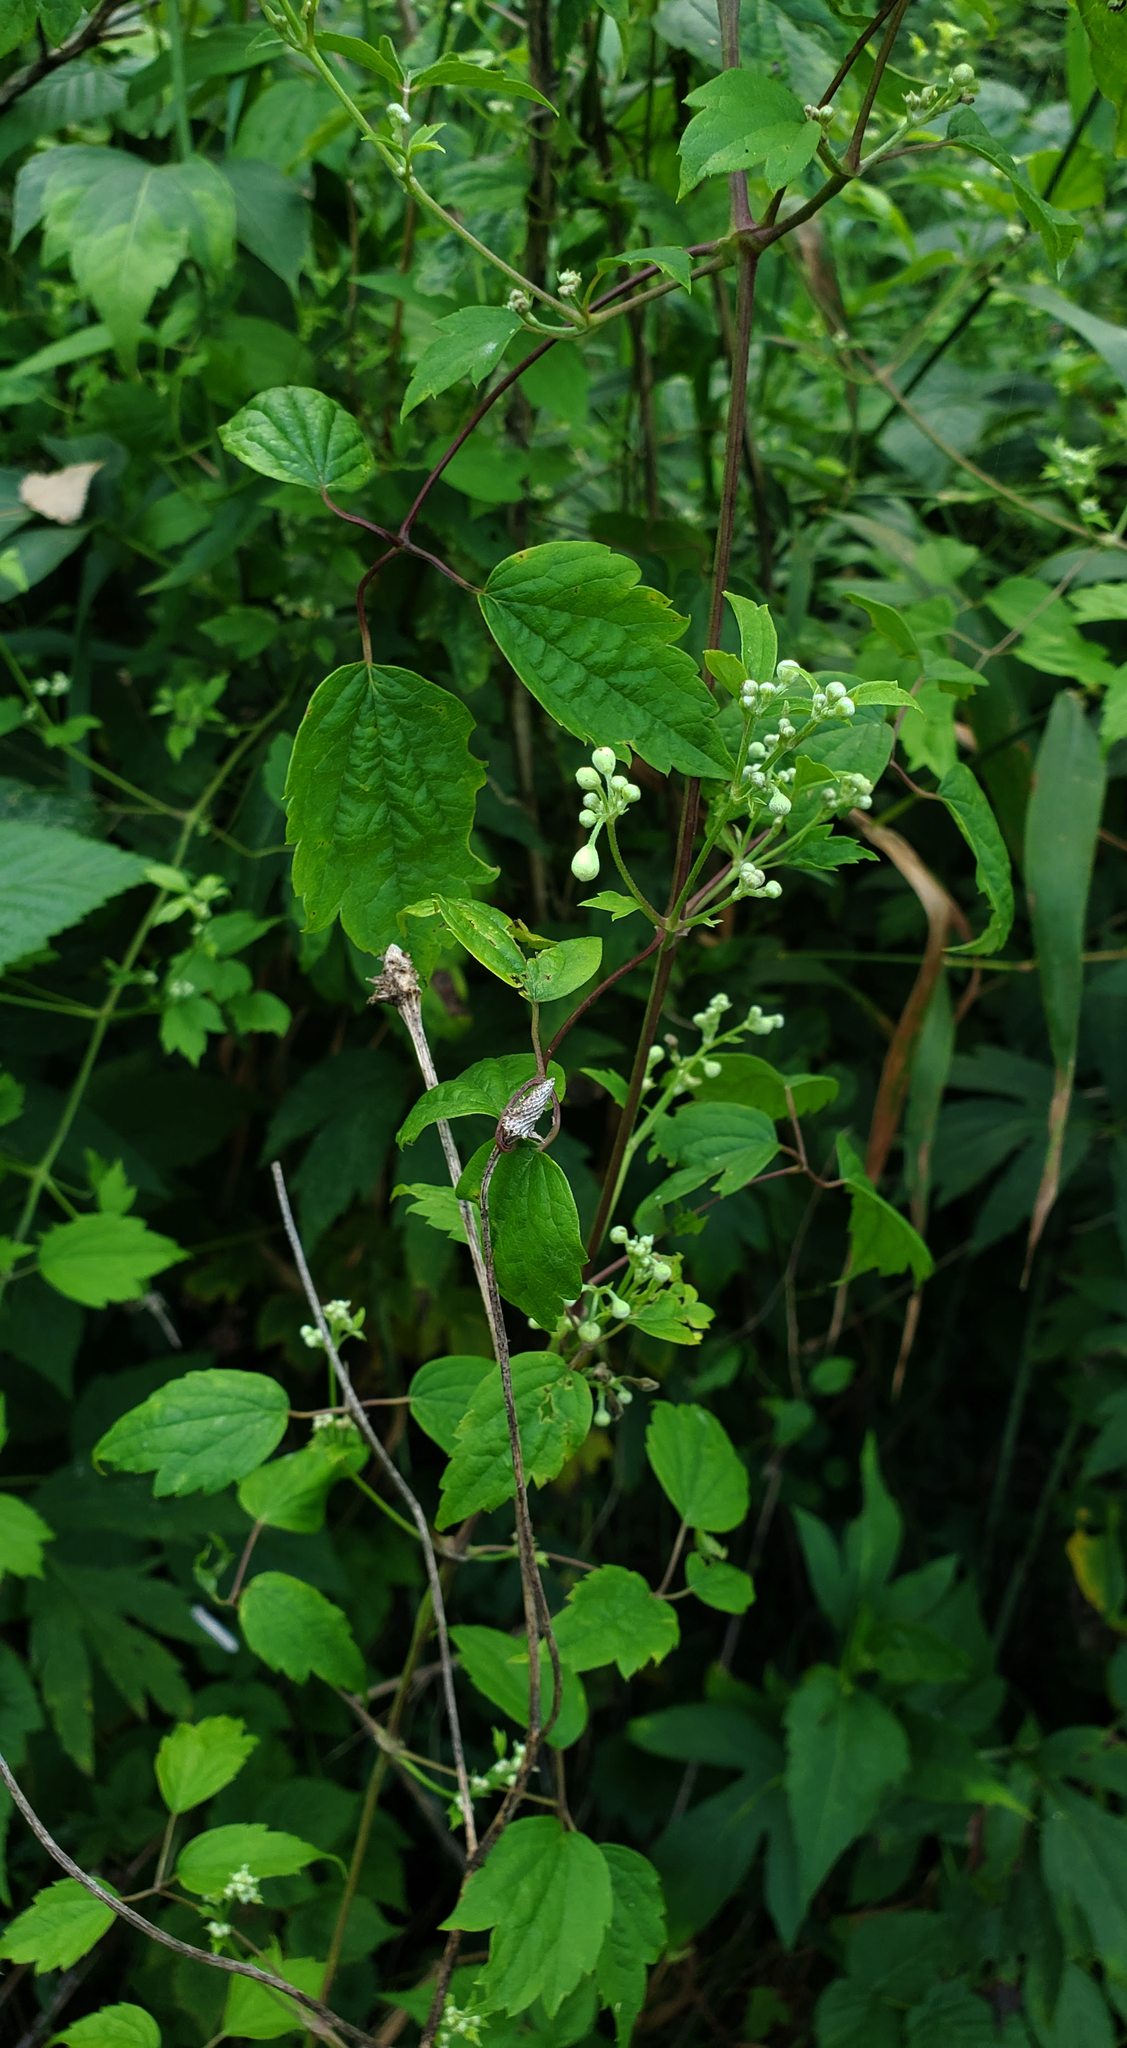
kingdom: Plantae
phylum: Tracheophyta
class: Magnoliopsida
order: Ranunculales
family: Ranunculaceae
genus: Clematis
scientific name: Clematis virginiana
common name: Virgin's-bower
